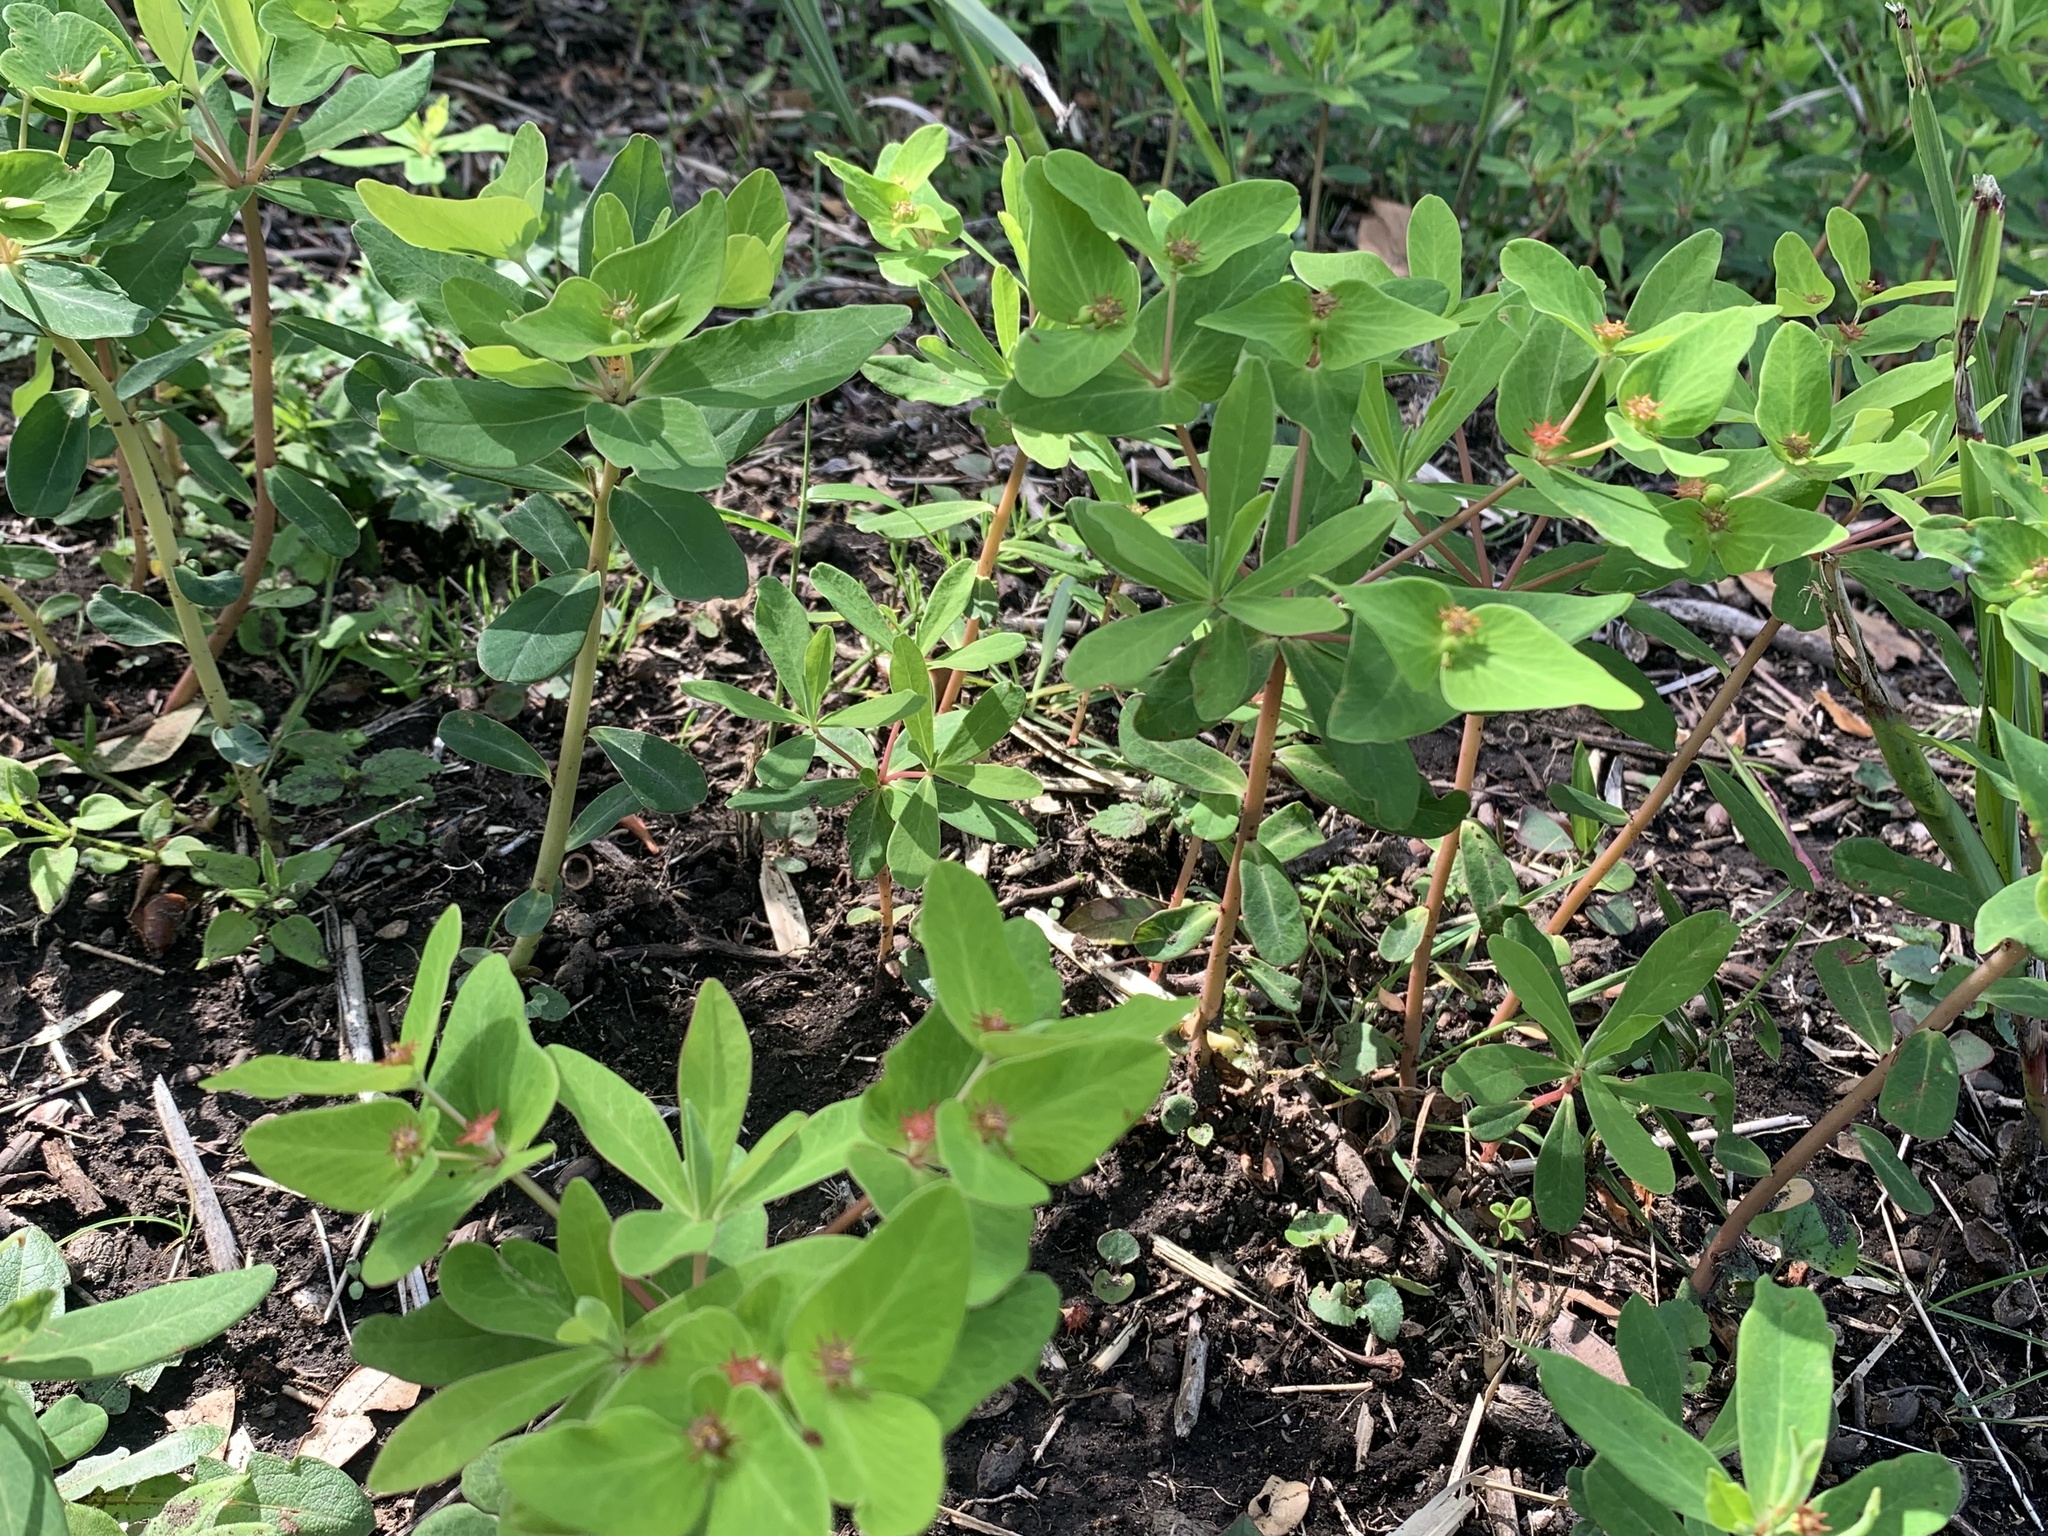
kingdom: Plantae
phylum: Tracheophyta
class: Magnoliopsida
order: Malpighiales
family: Euphorbiaceae
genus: Euphorbia
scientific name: Euphorbia sieboldiana
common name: Siebold's spurge
